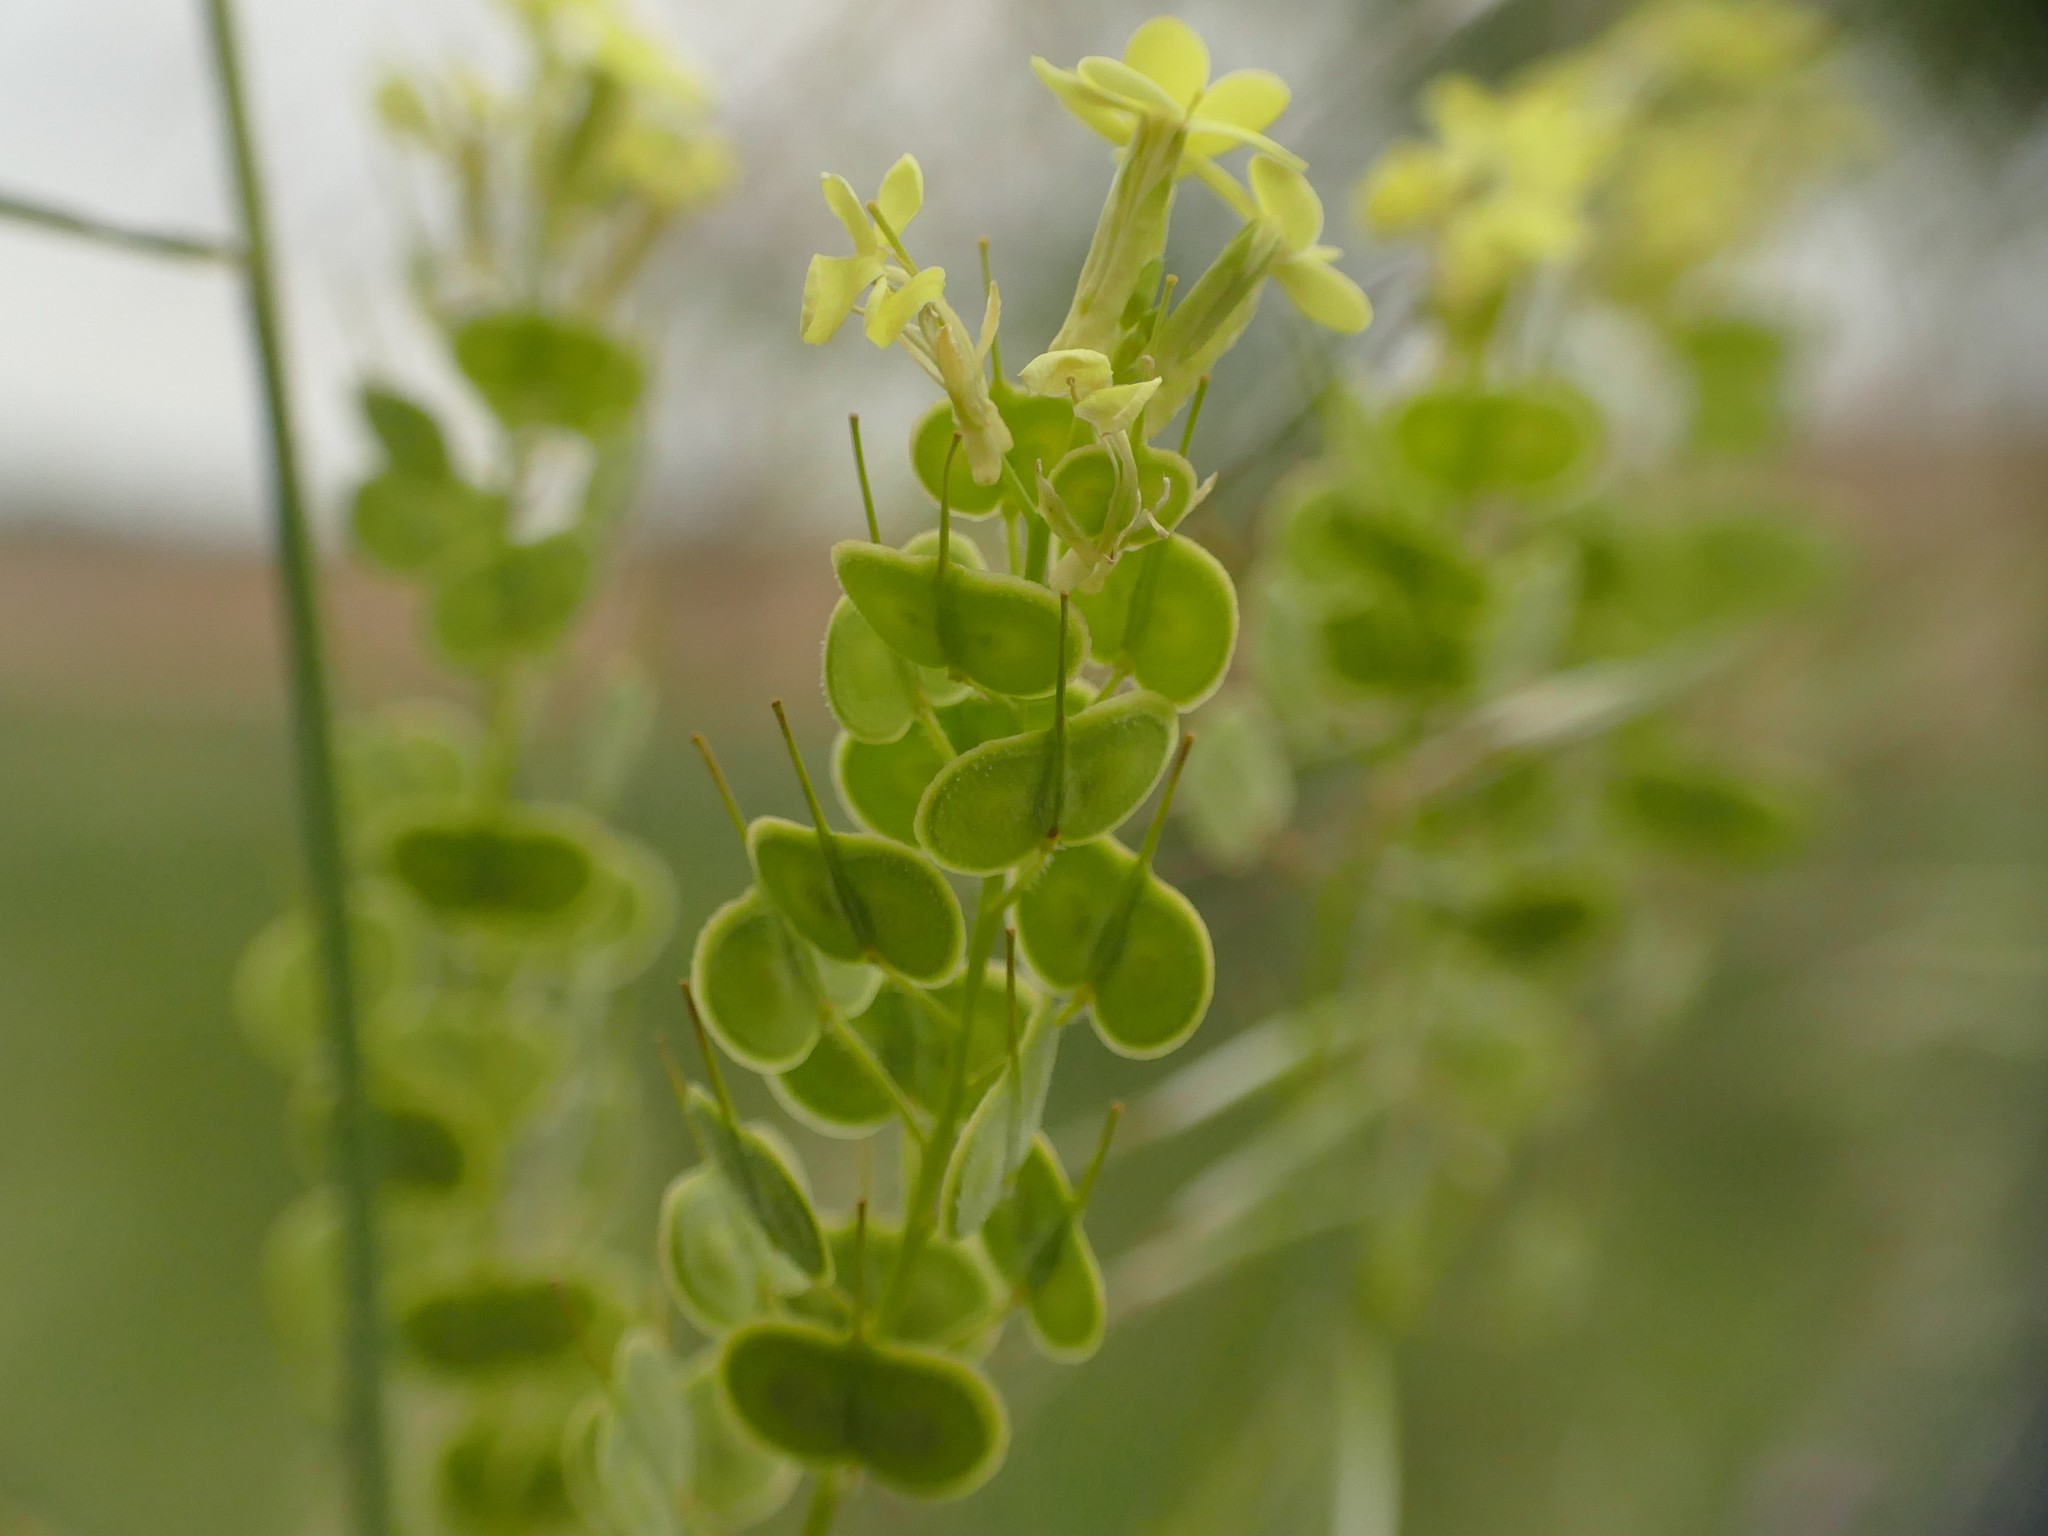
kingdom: Plantae
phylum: Tracheophyta
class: Magnoliopsida
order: Brassicales
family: Brassicaceae
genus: Biscutella
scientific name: Biscutella auriculata
